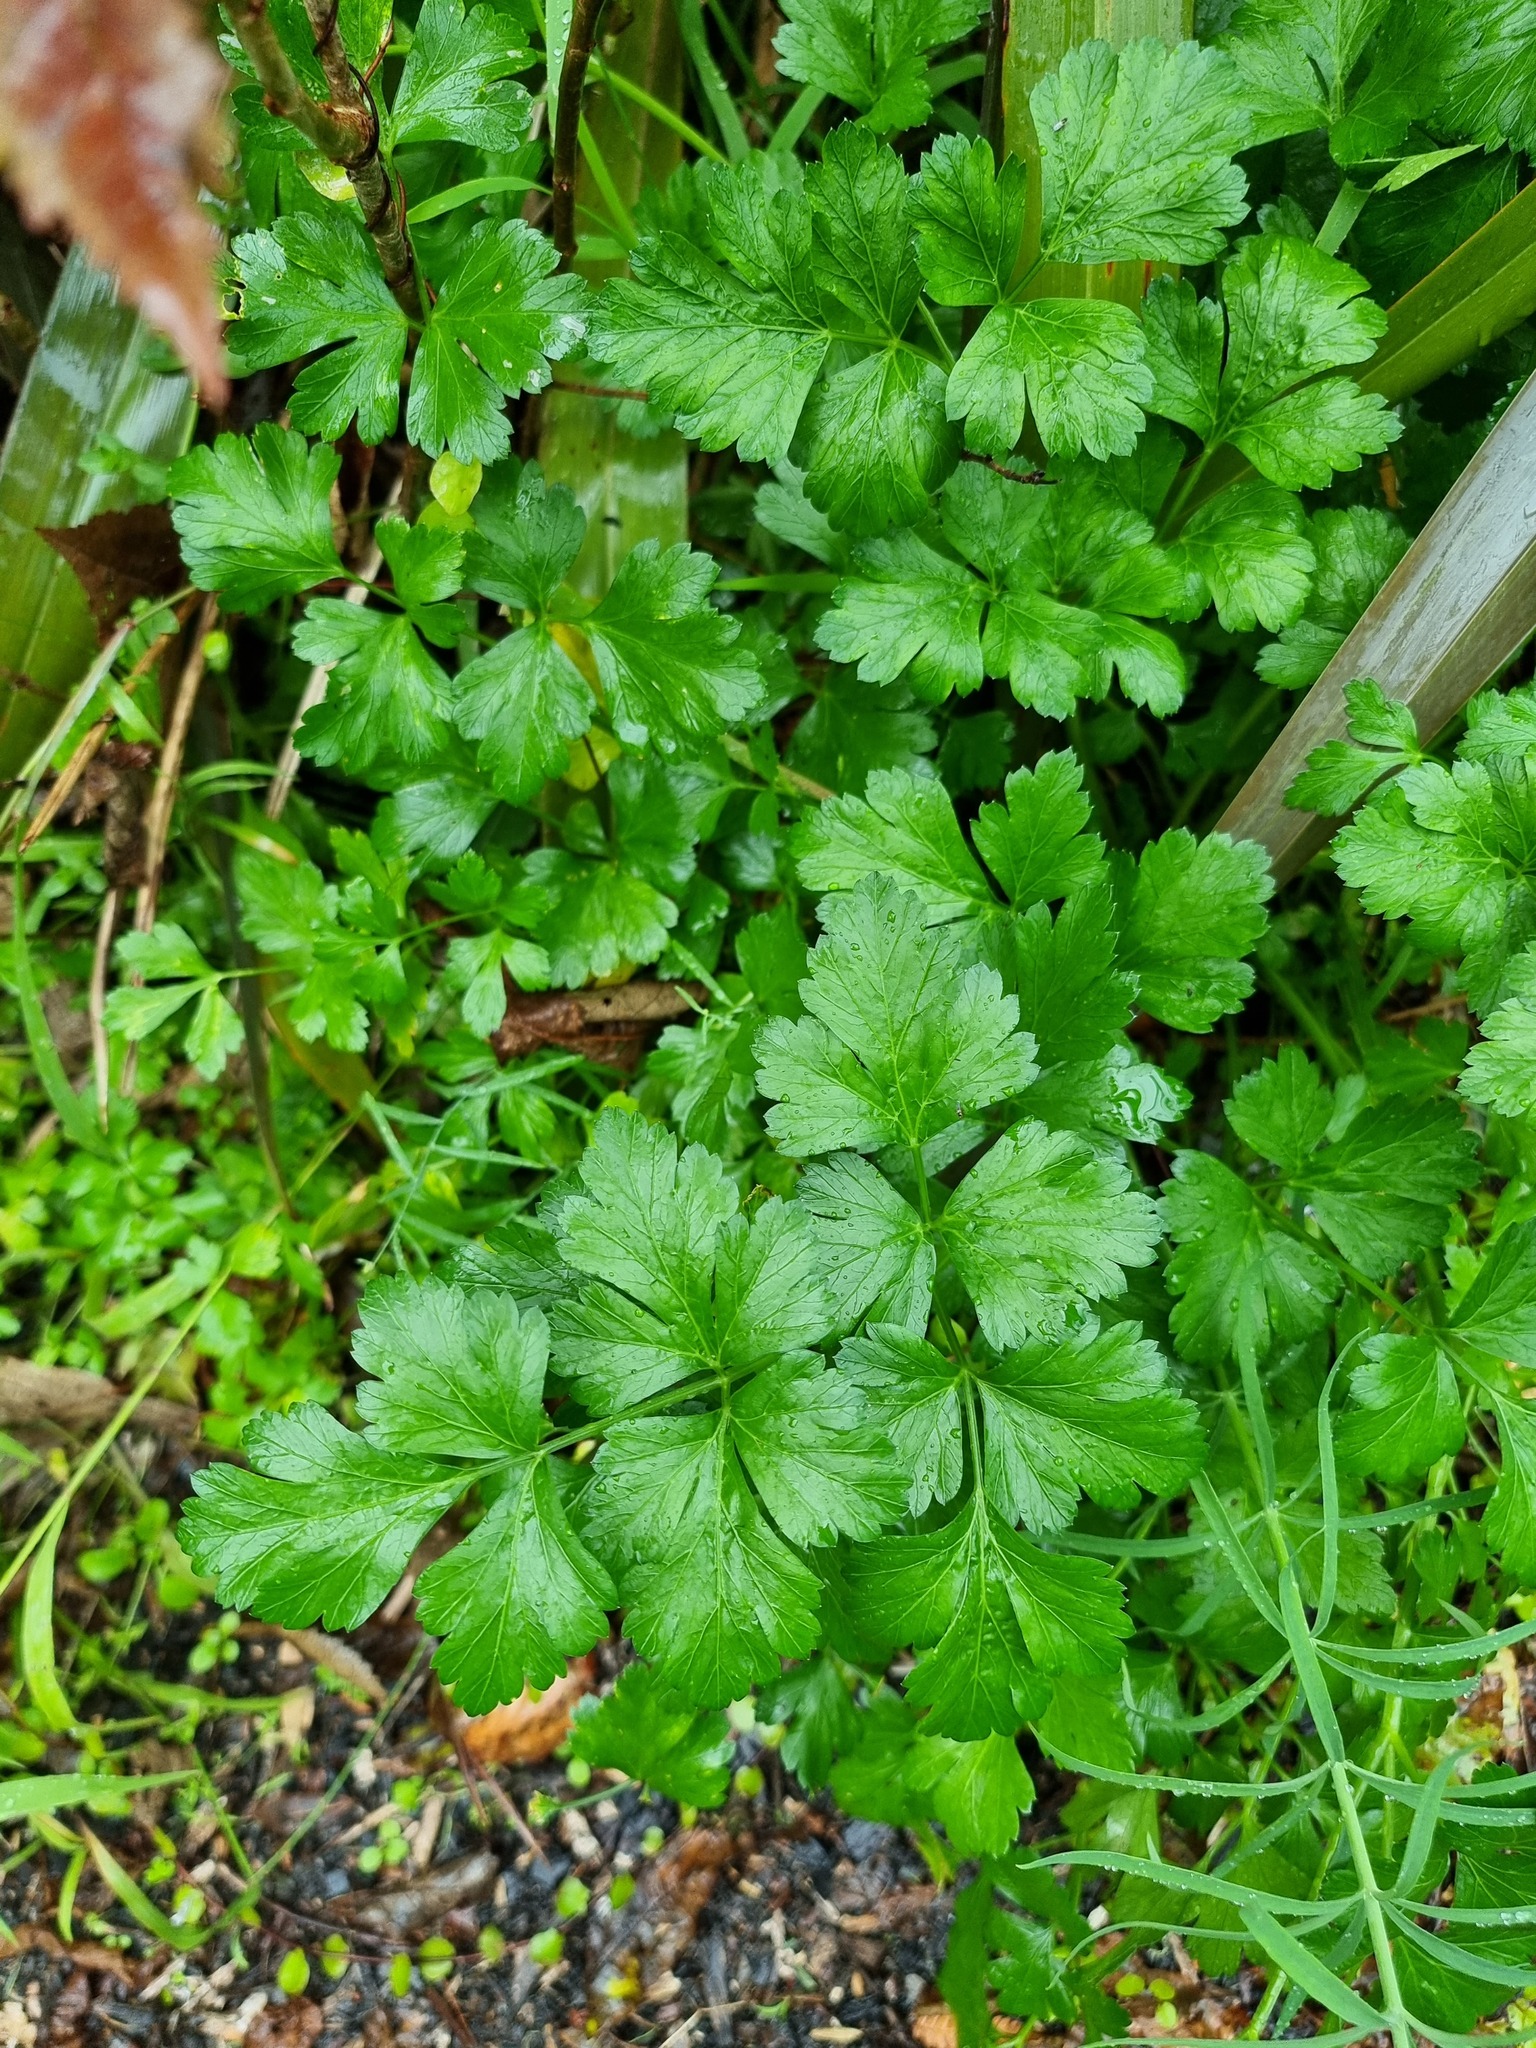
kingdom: Plantae
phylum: Tracheophyta
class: Magnoliopsida
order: Apiales
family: Apiaceae
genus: Petroselinum
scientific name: Petroselinum crispum
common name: Parsley
